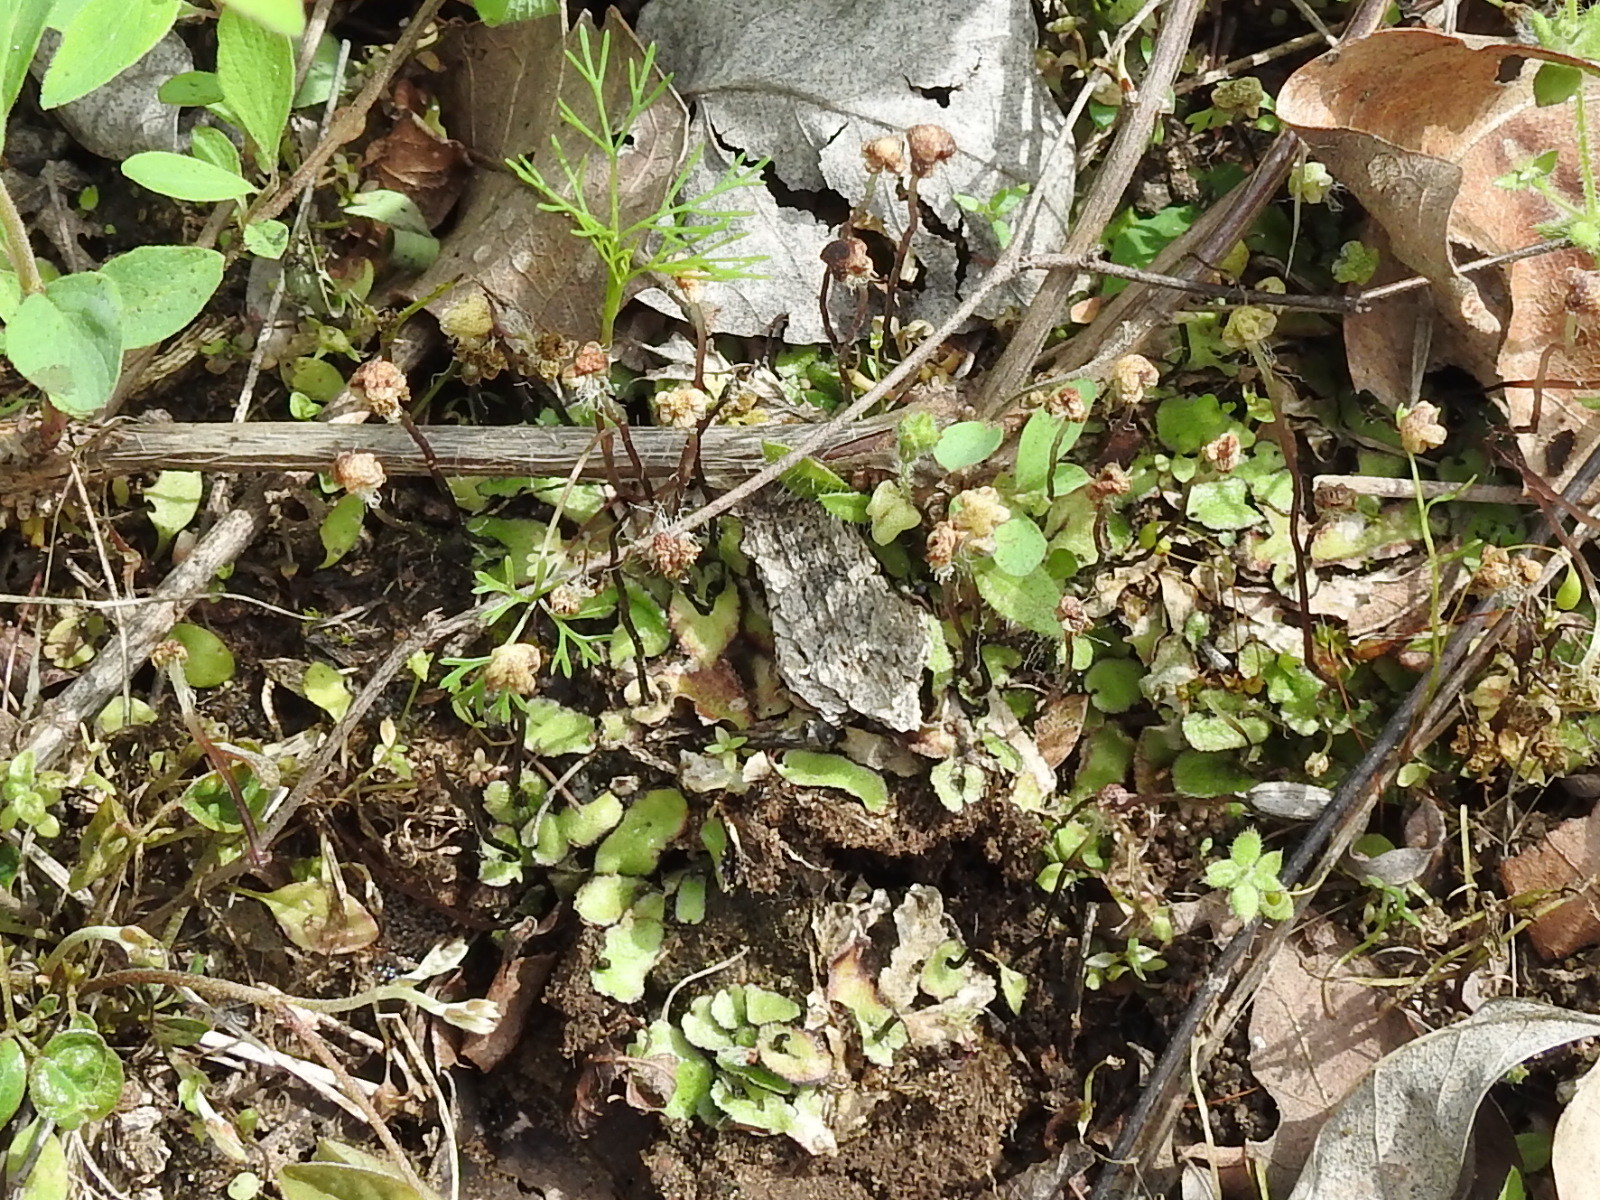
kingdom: Plantae
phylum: Marchantiophyta
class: Marchantiopsida
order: Marchantiales
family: Aytoniaceae
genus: Reboulia
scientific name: Reboulia hemisphaerica
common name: Purple-margined liverwort
